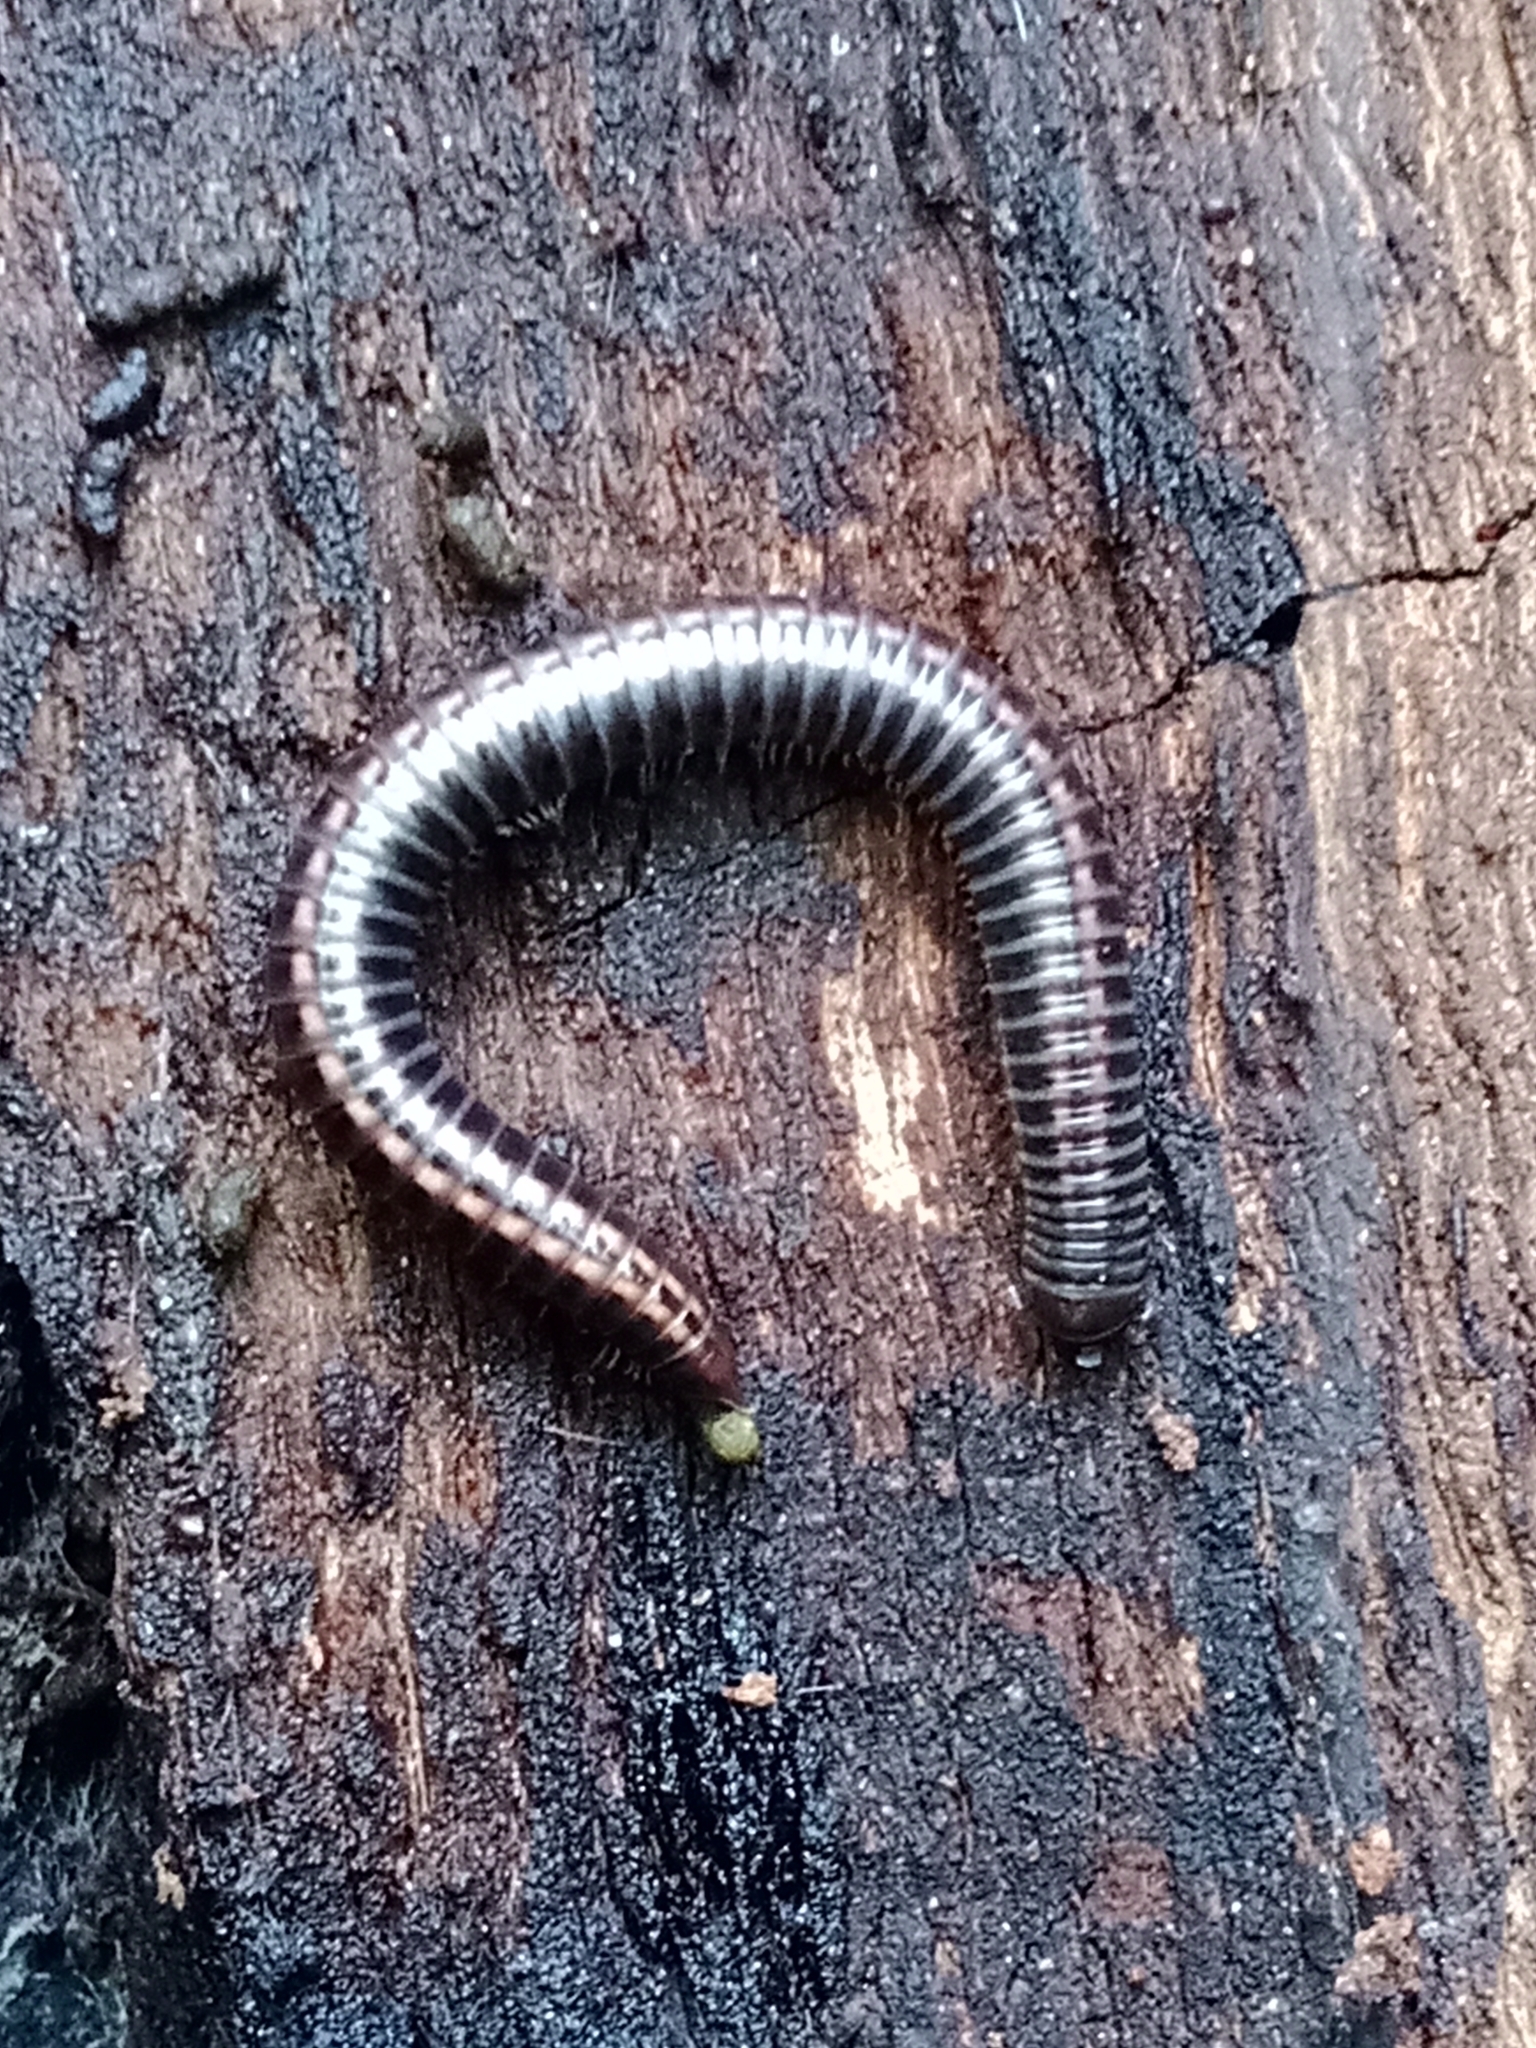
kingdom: Animalia
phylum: Arthropoda
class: Diplopoda
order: Julida
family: Julidae
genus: Ommatoiulus
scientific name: Ommatoiulus sabulosus
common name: Striped millipede
